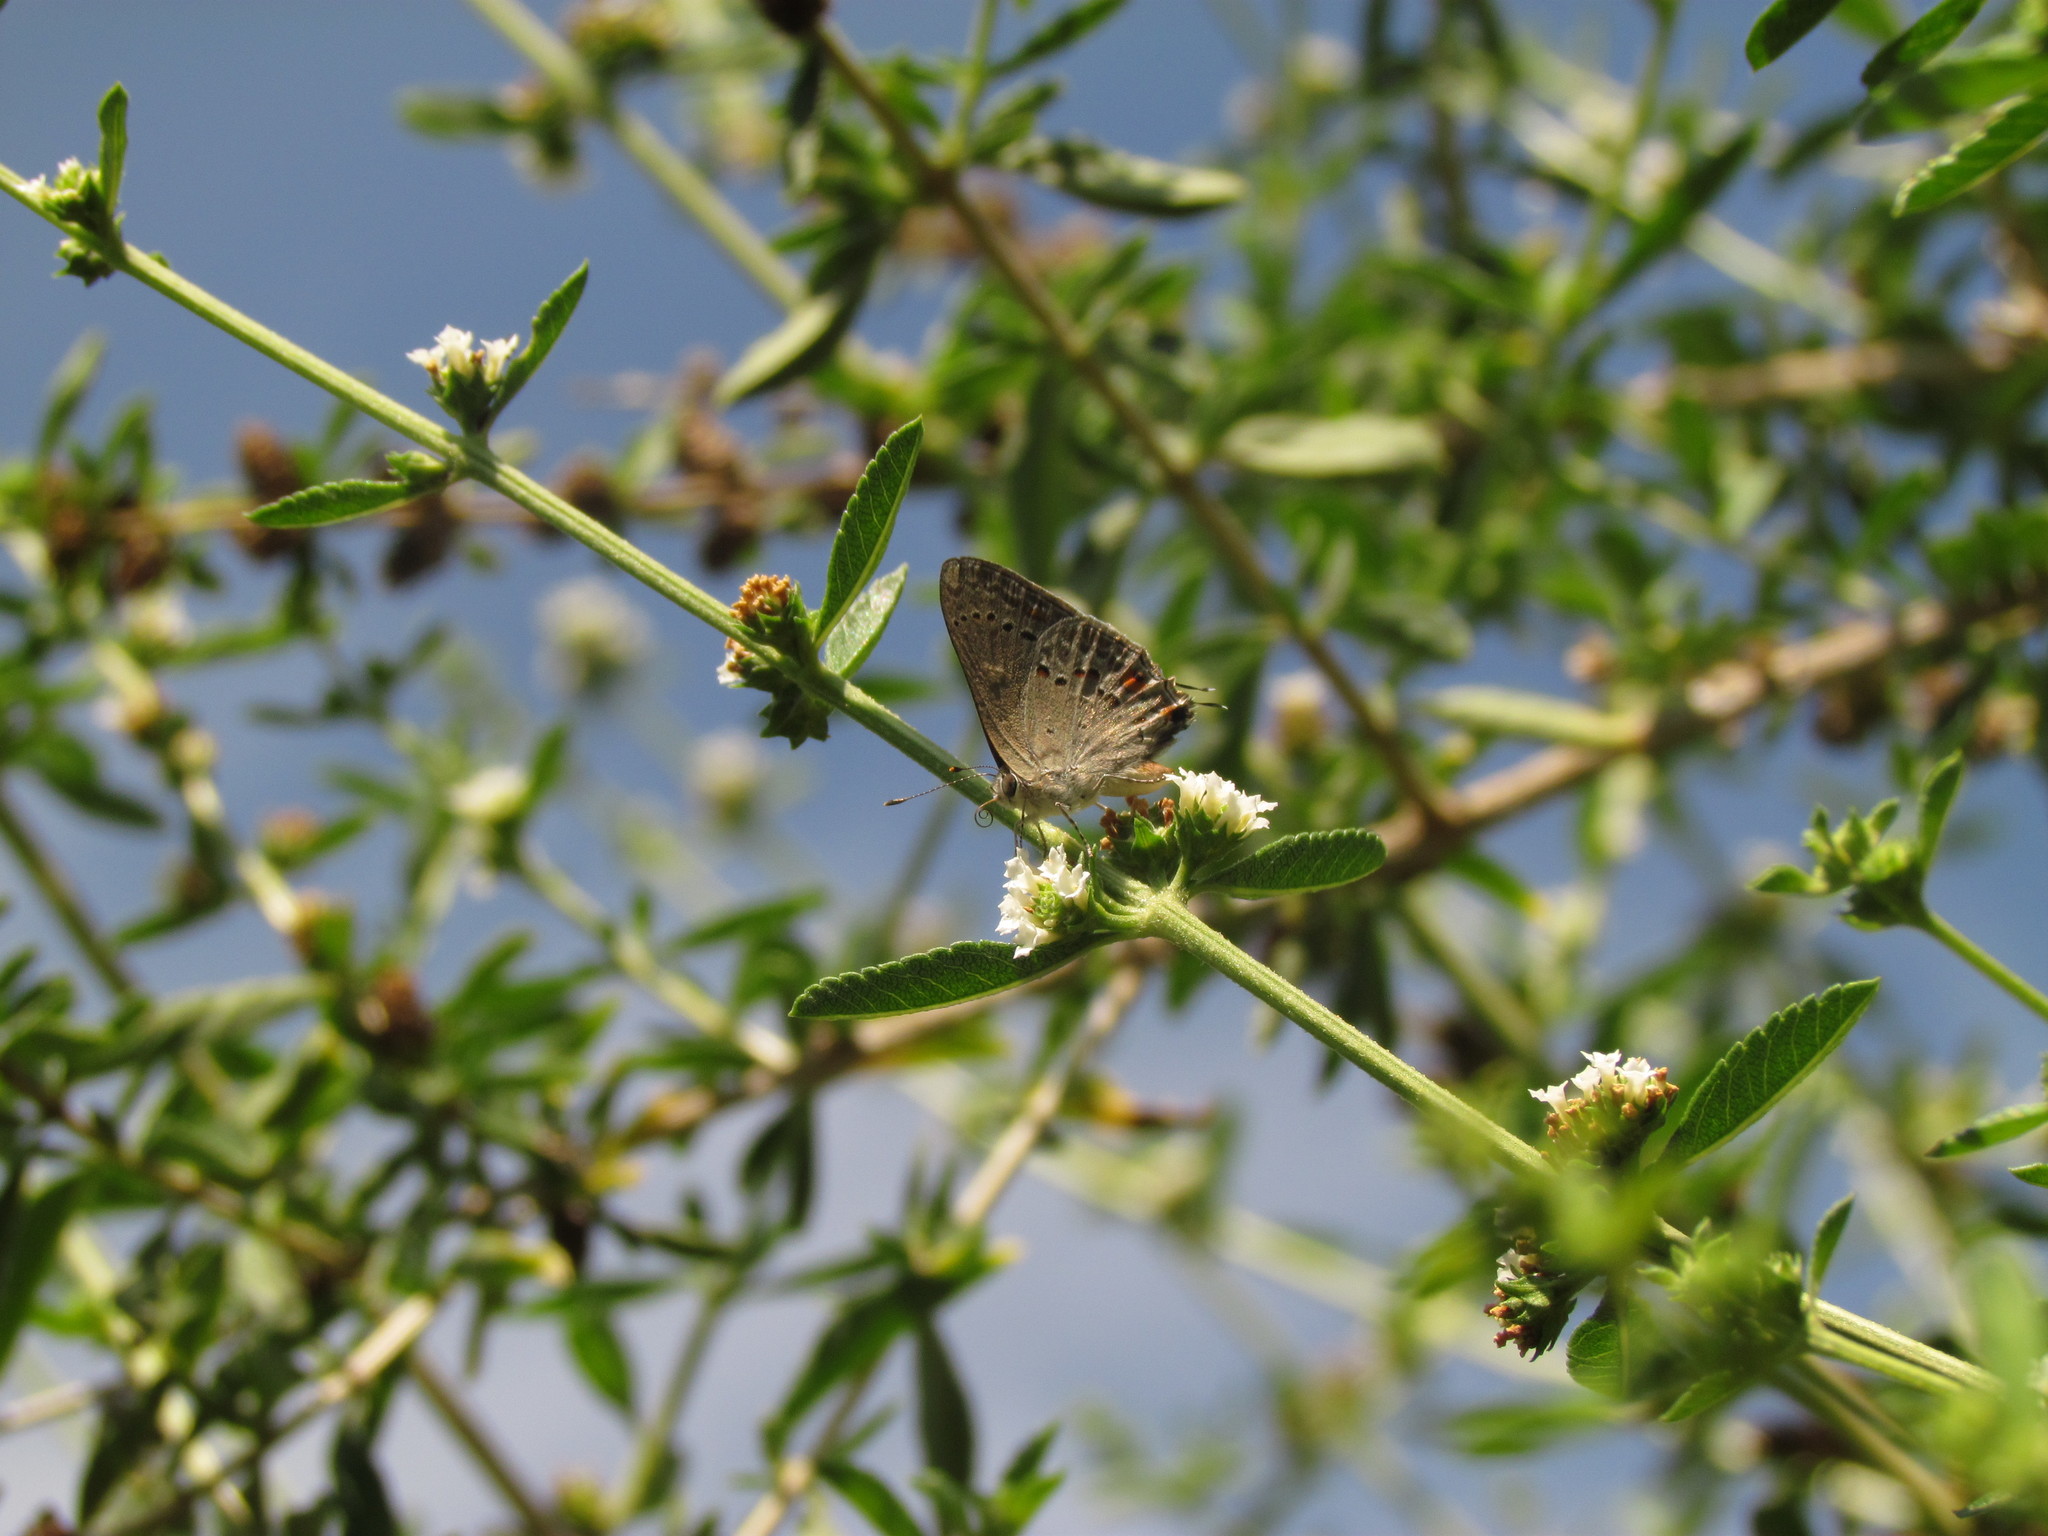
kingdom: Animalia
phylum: Arthropoda
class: Insecta
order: Lepidoptera
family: Lycaenidae
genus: Strymon
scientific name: Strymon eurytulus
